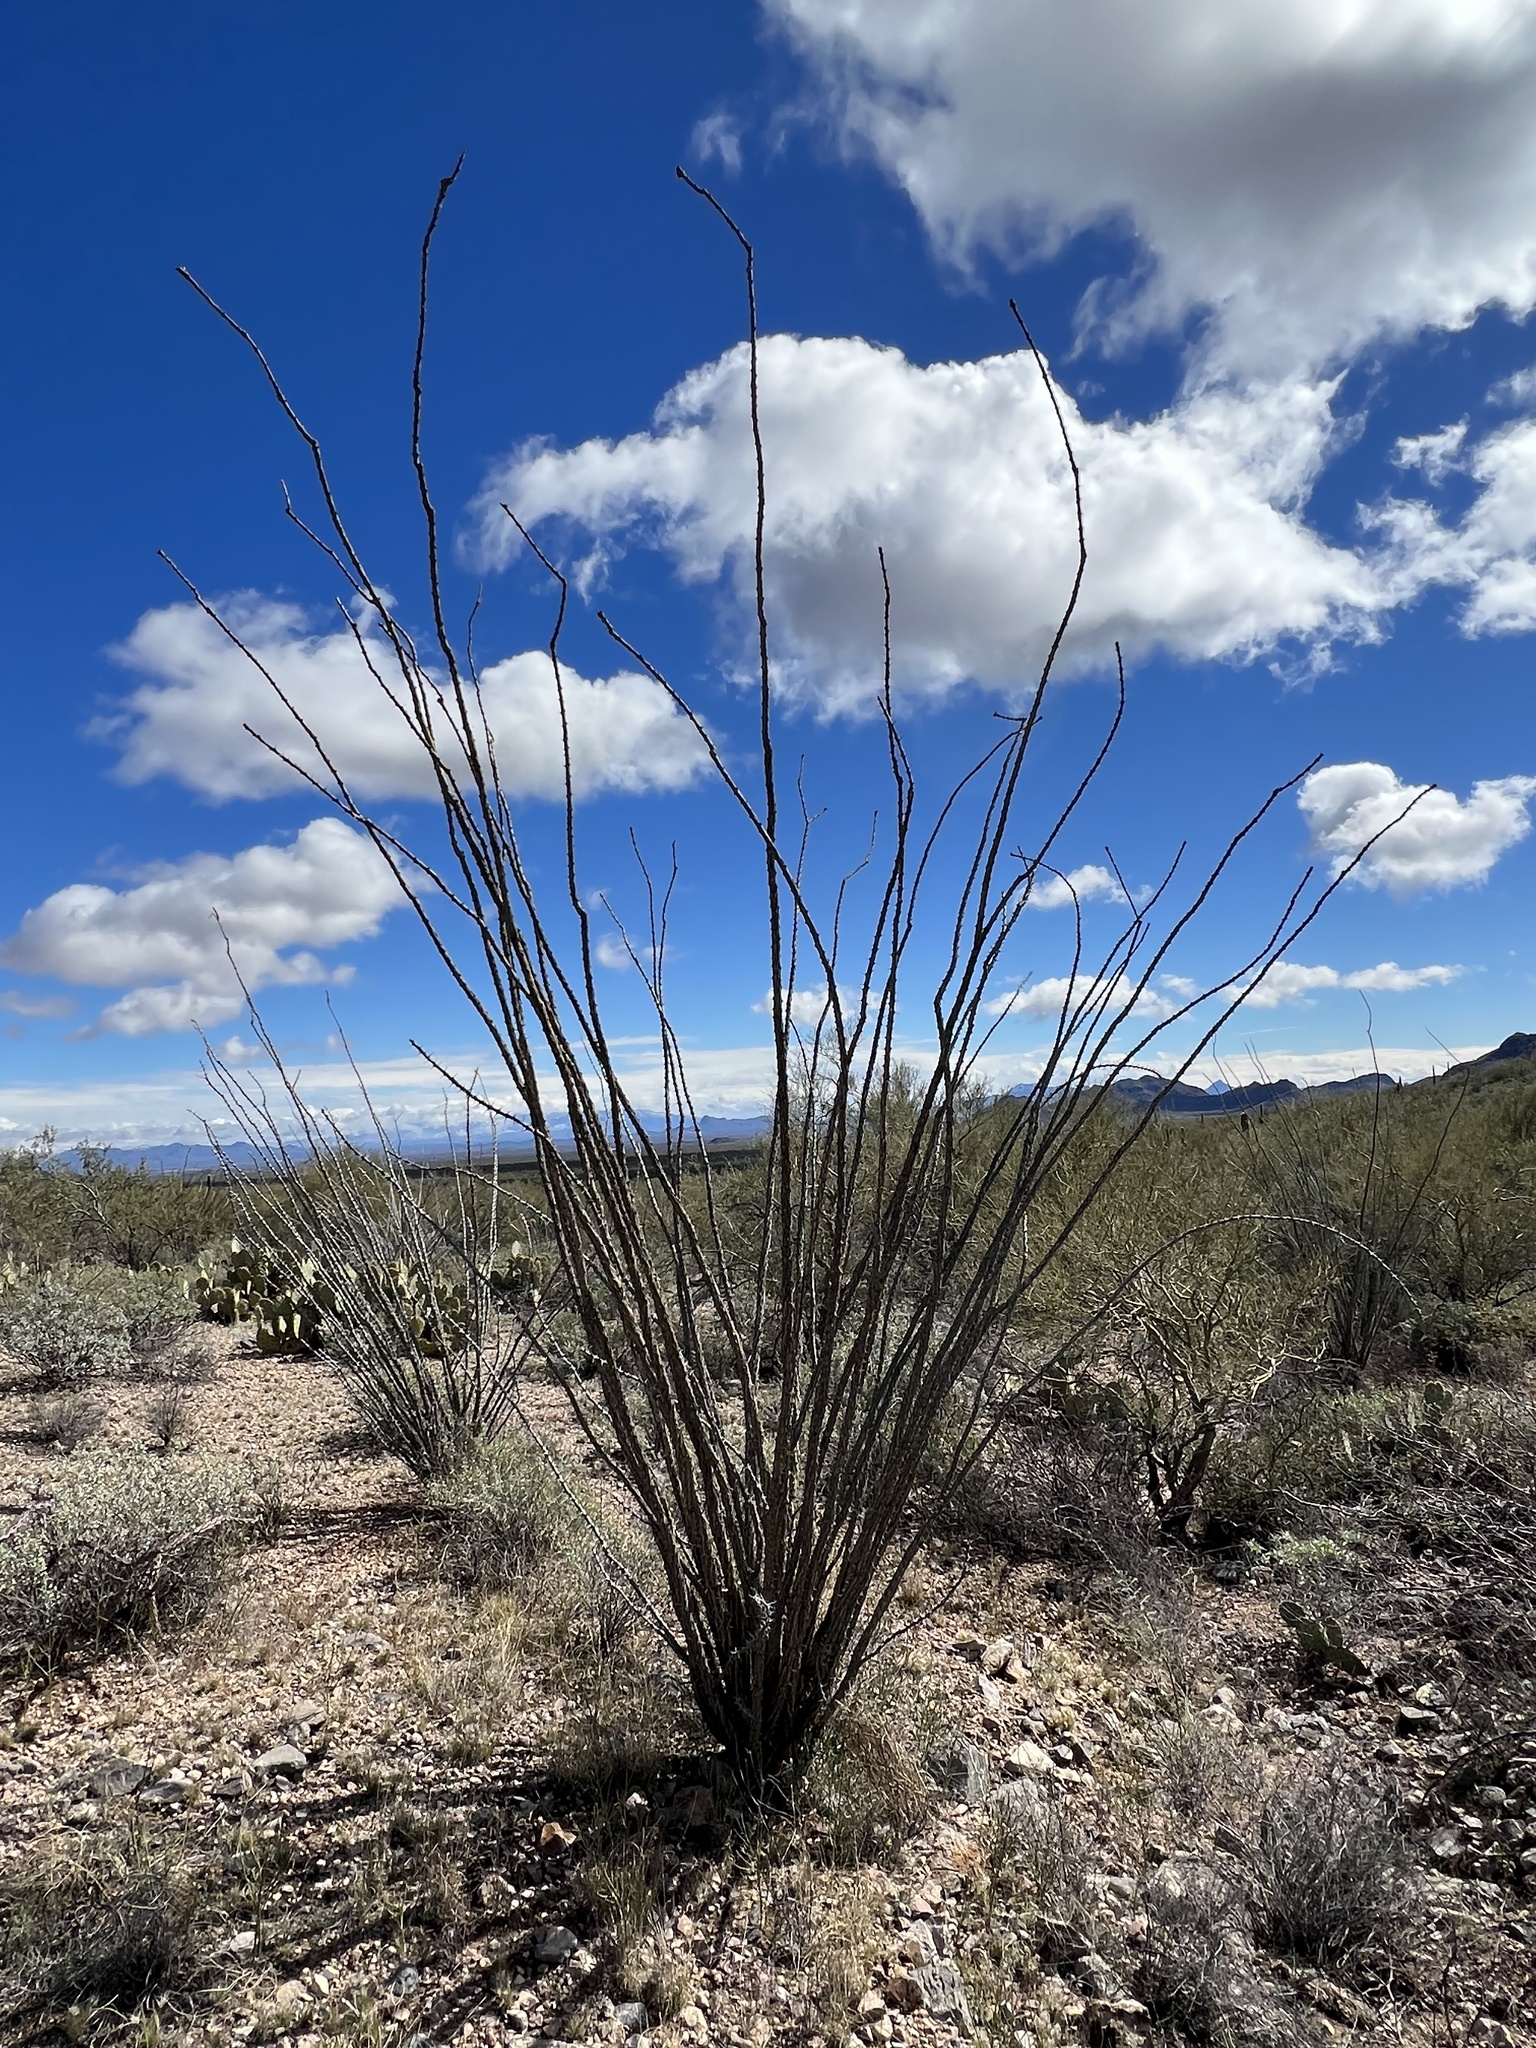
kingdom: Plantae
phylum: Tracheophyta
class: Magnoliopsida
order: Ericales
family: Fouquieriaceae
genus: Fouquieria
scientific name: Fouquieria splendens
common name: Vine-cactus
